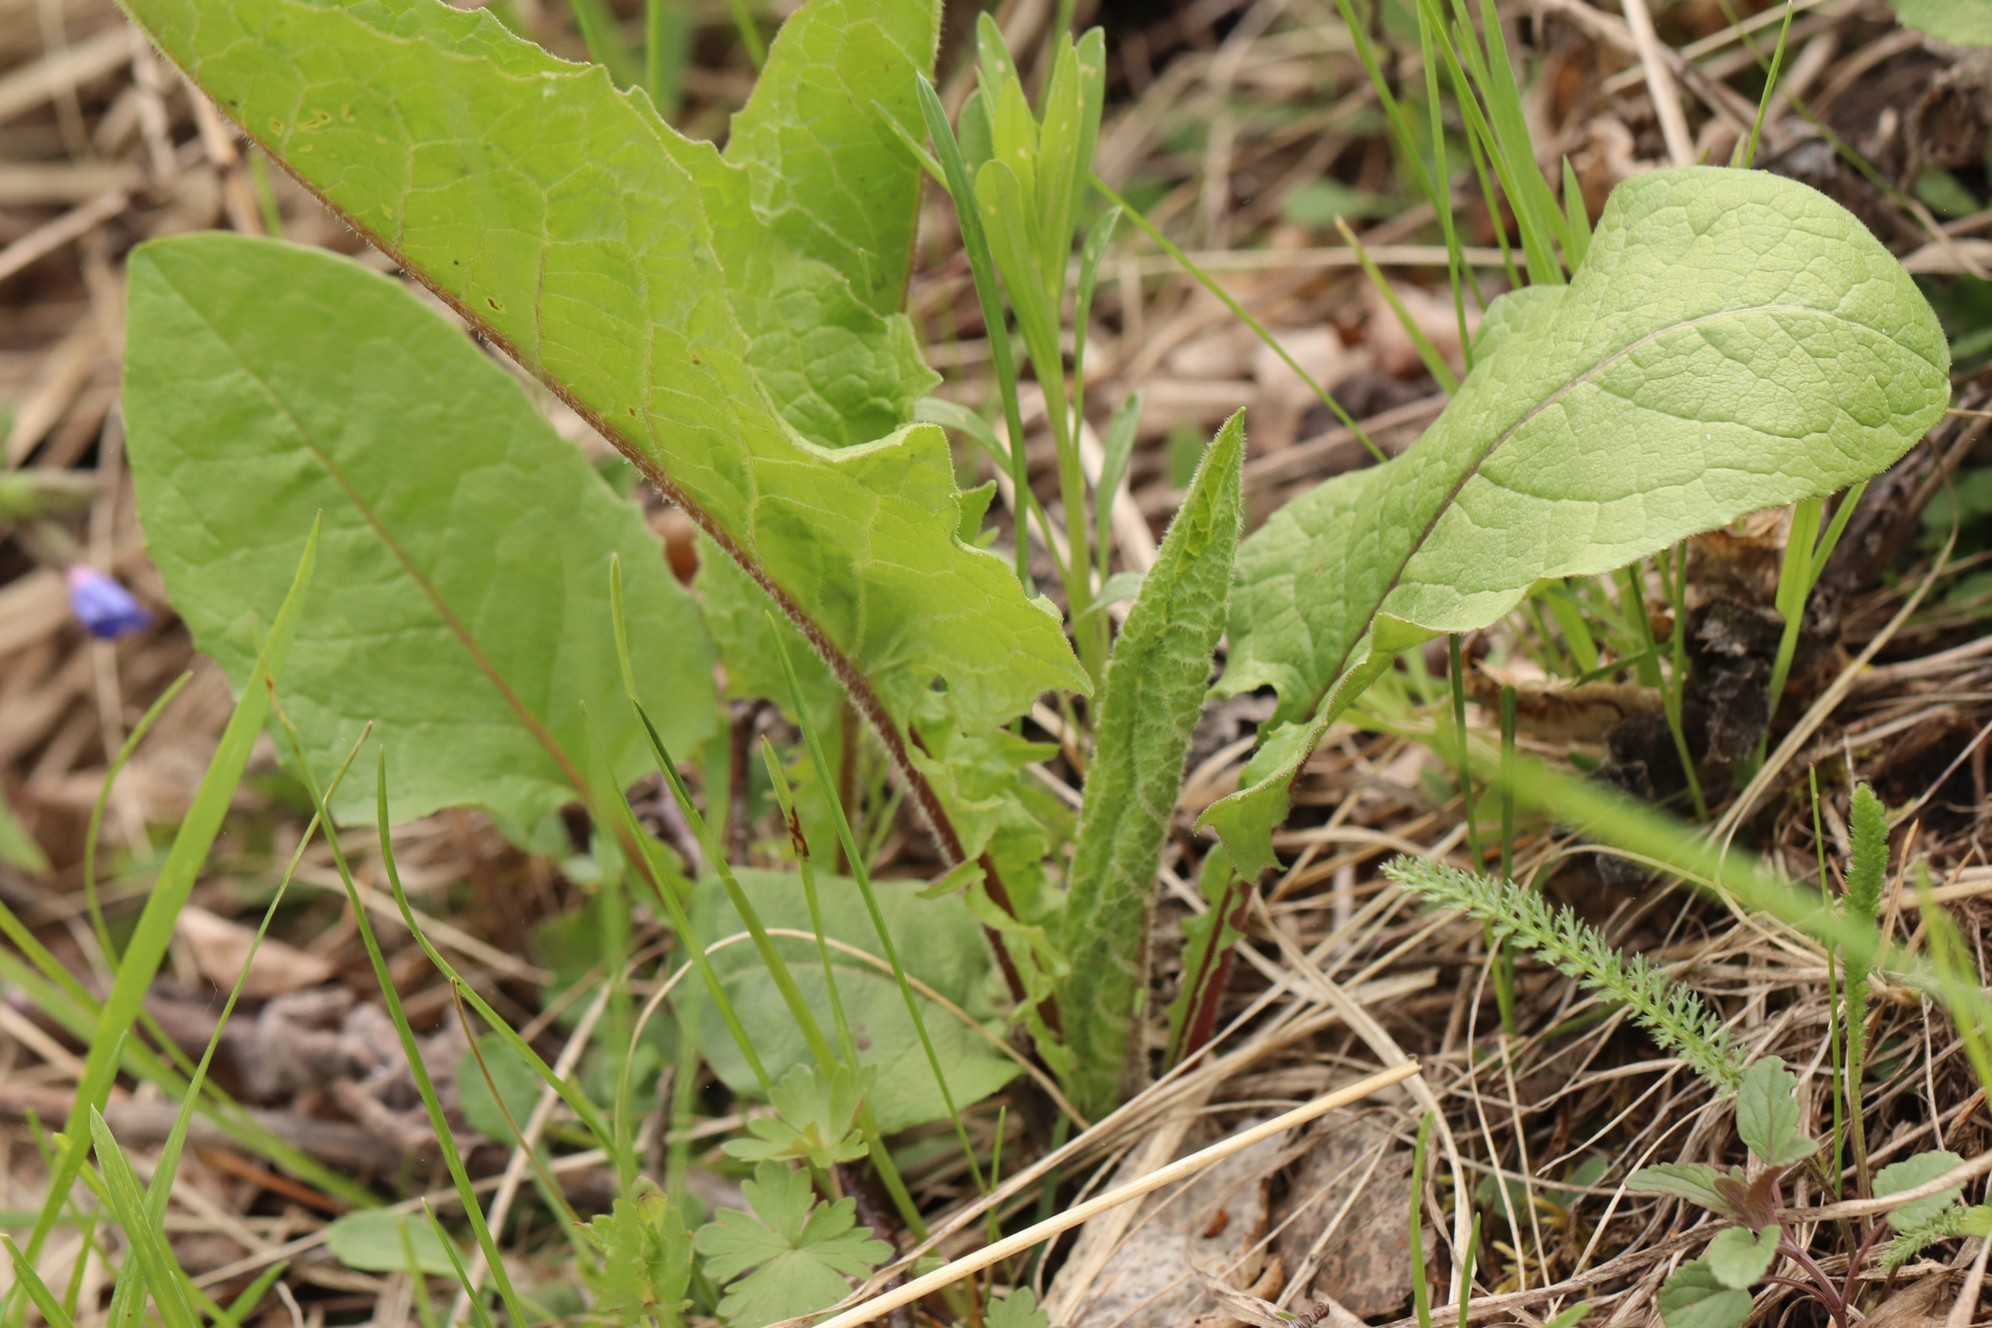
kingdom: Plantae
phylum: Tracheophyta
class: Magnoliopsida
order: Asterales
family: Asteraceae
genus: Crepis
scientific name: Crepis sibirica
